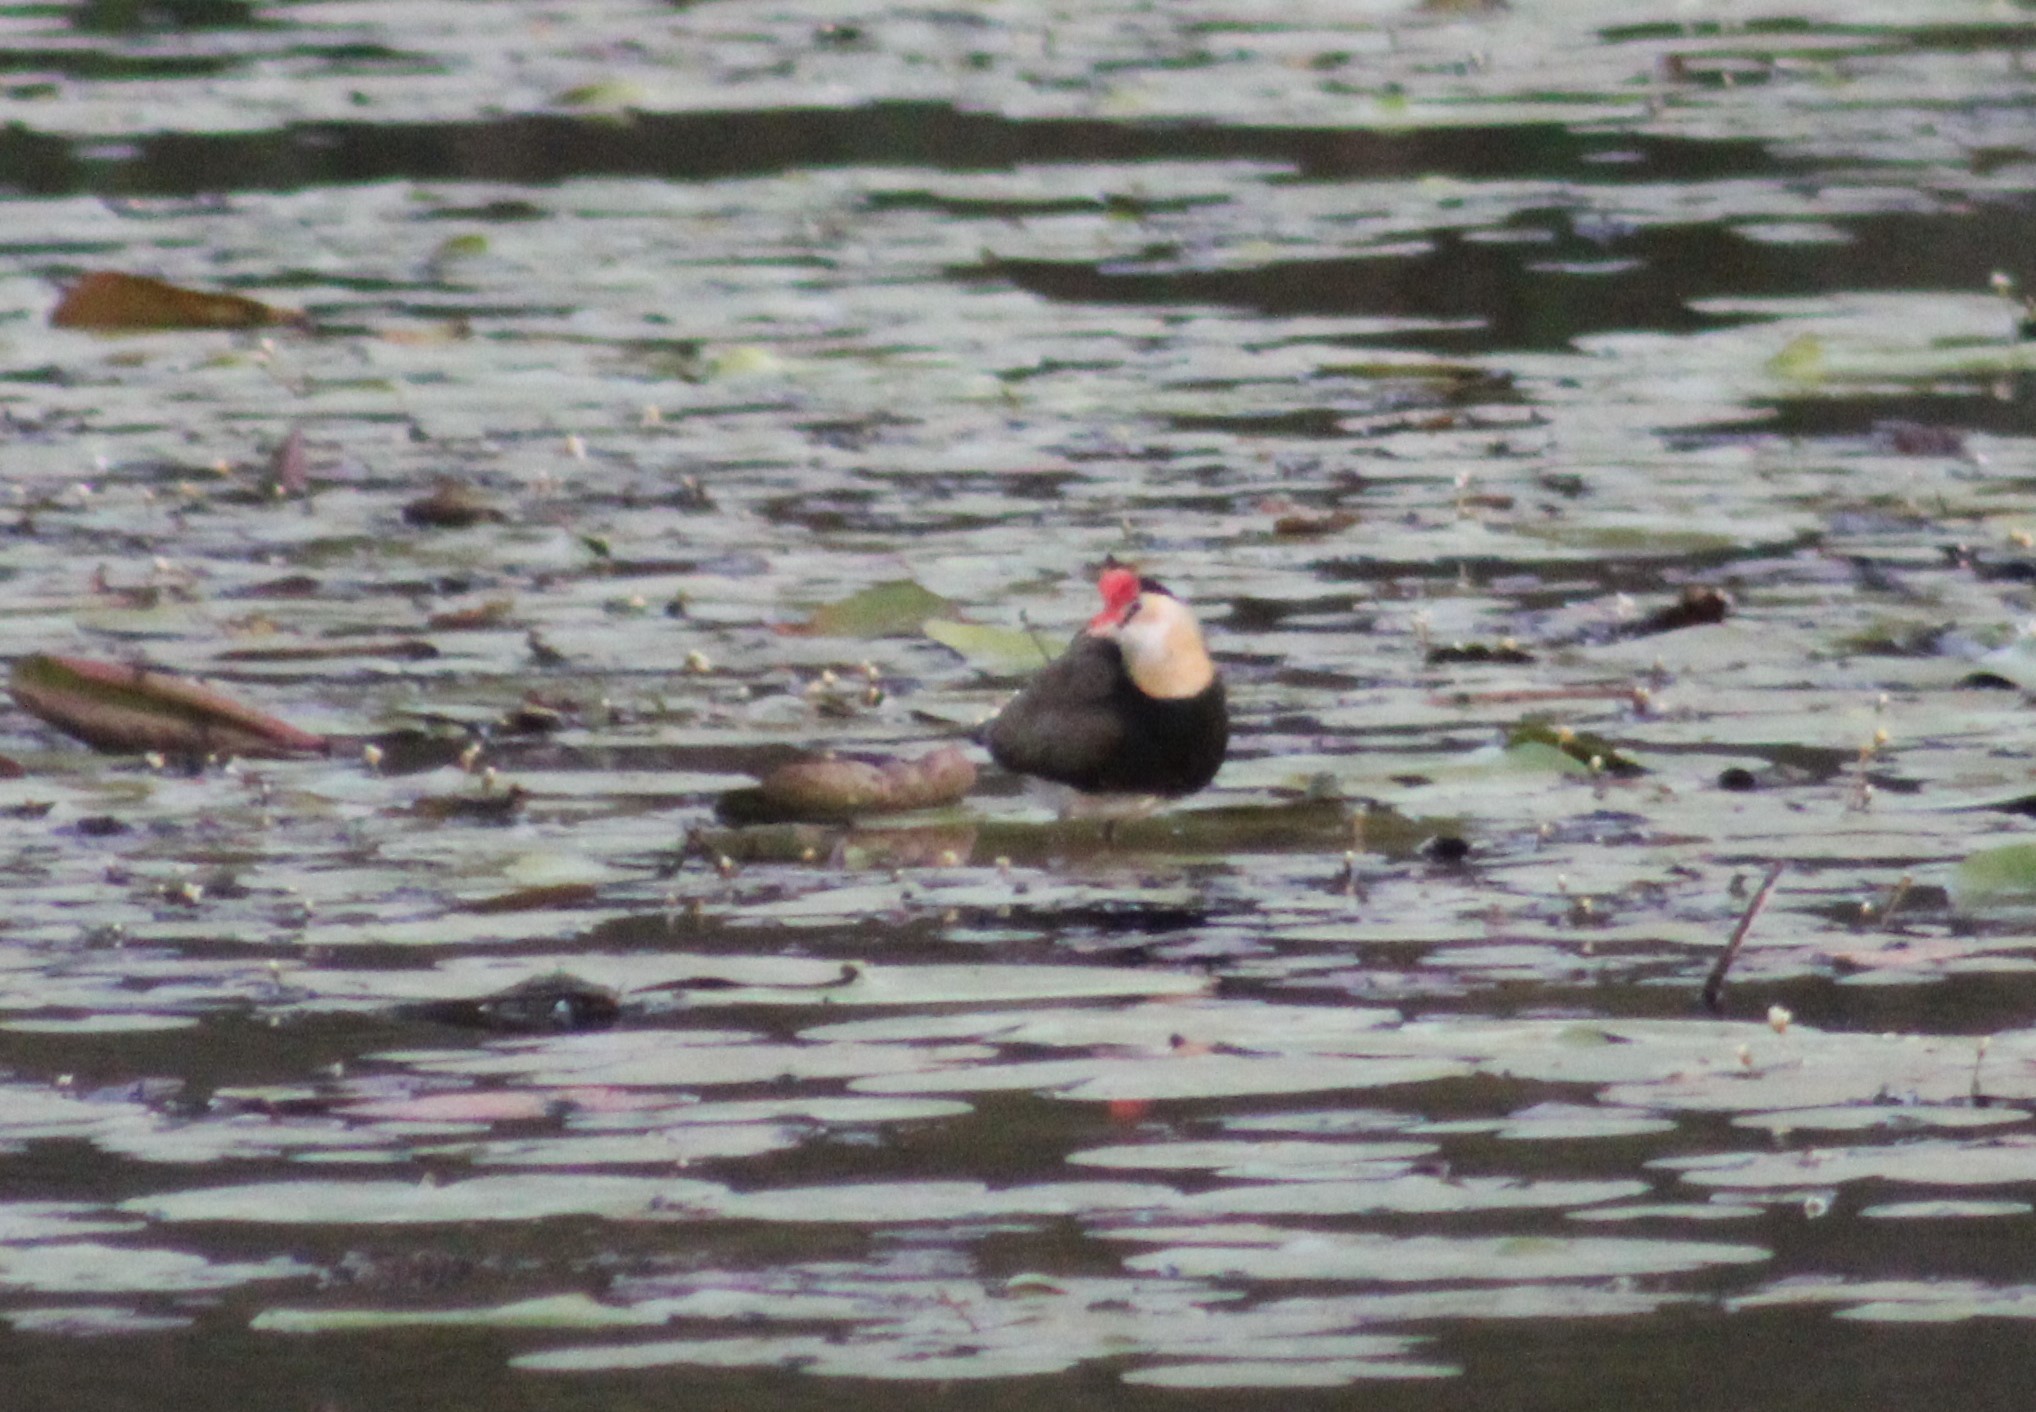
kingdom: Animalia
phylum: Chordata
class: Aves
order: Charadriiformes
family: Jacanidae
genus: Irediparra
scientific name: Irediparra gallinacea
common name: Comb-crested jacana
